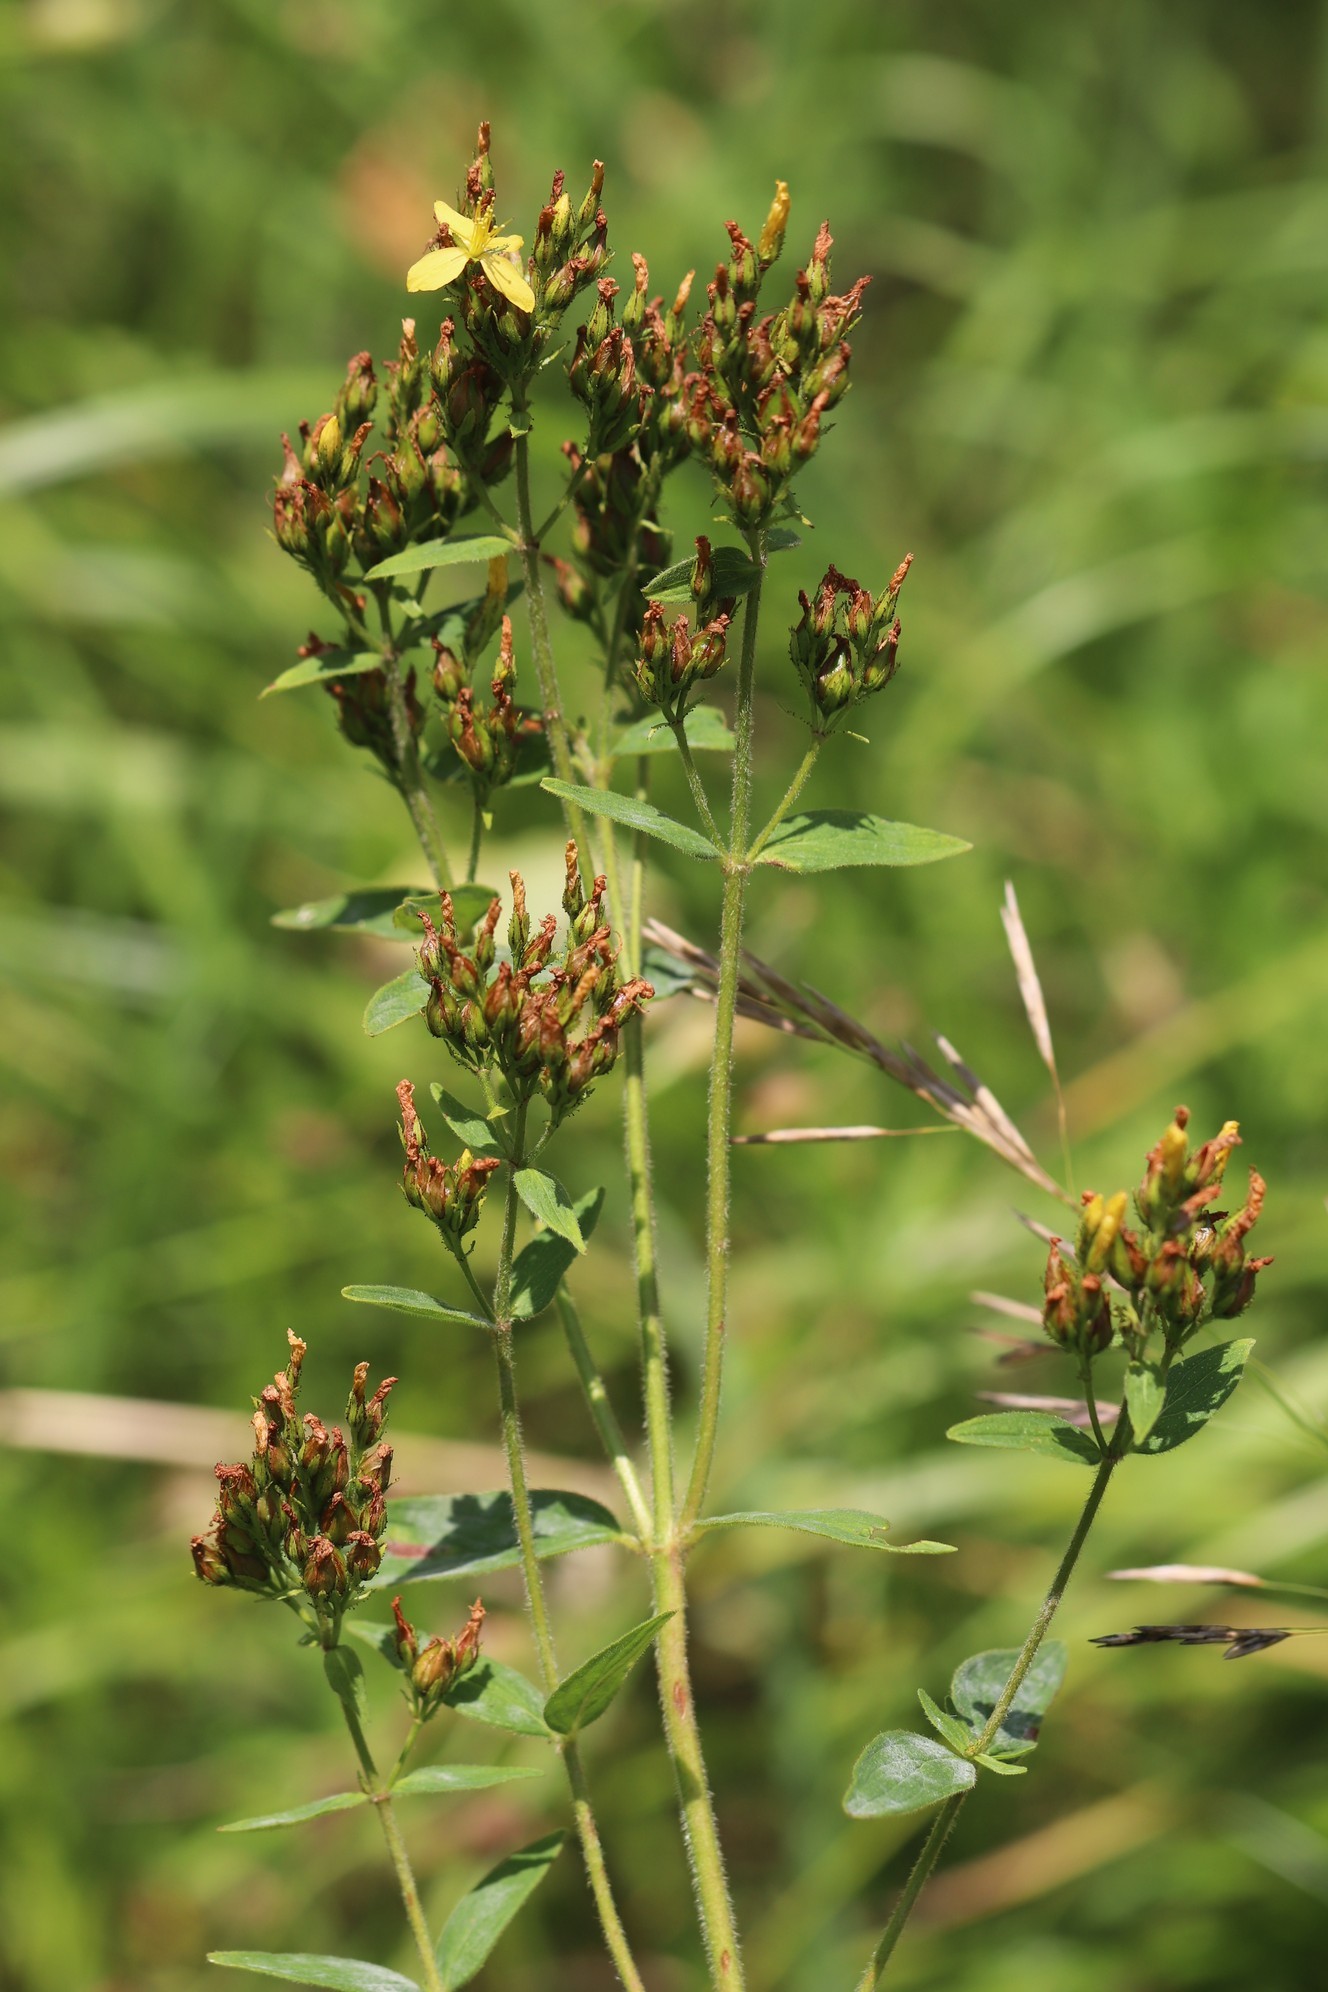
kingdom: Plantae
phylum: Tracheophyta
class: Magnoliopsida
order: Malpighiales
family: Hypericaceae
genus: Hypericum
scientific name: Hypericum hirsutum
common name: Hairy st. john's-wort
